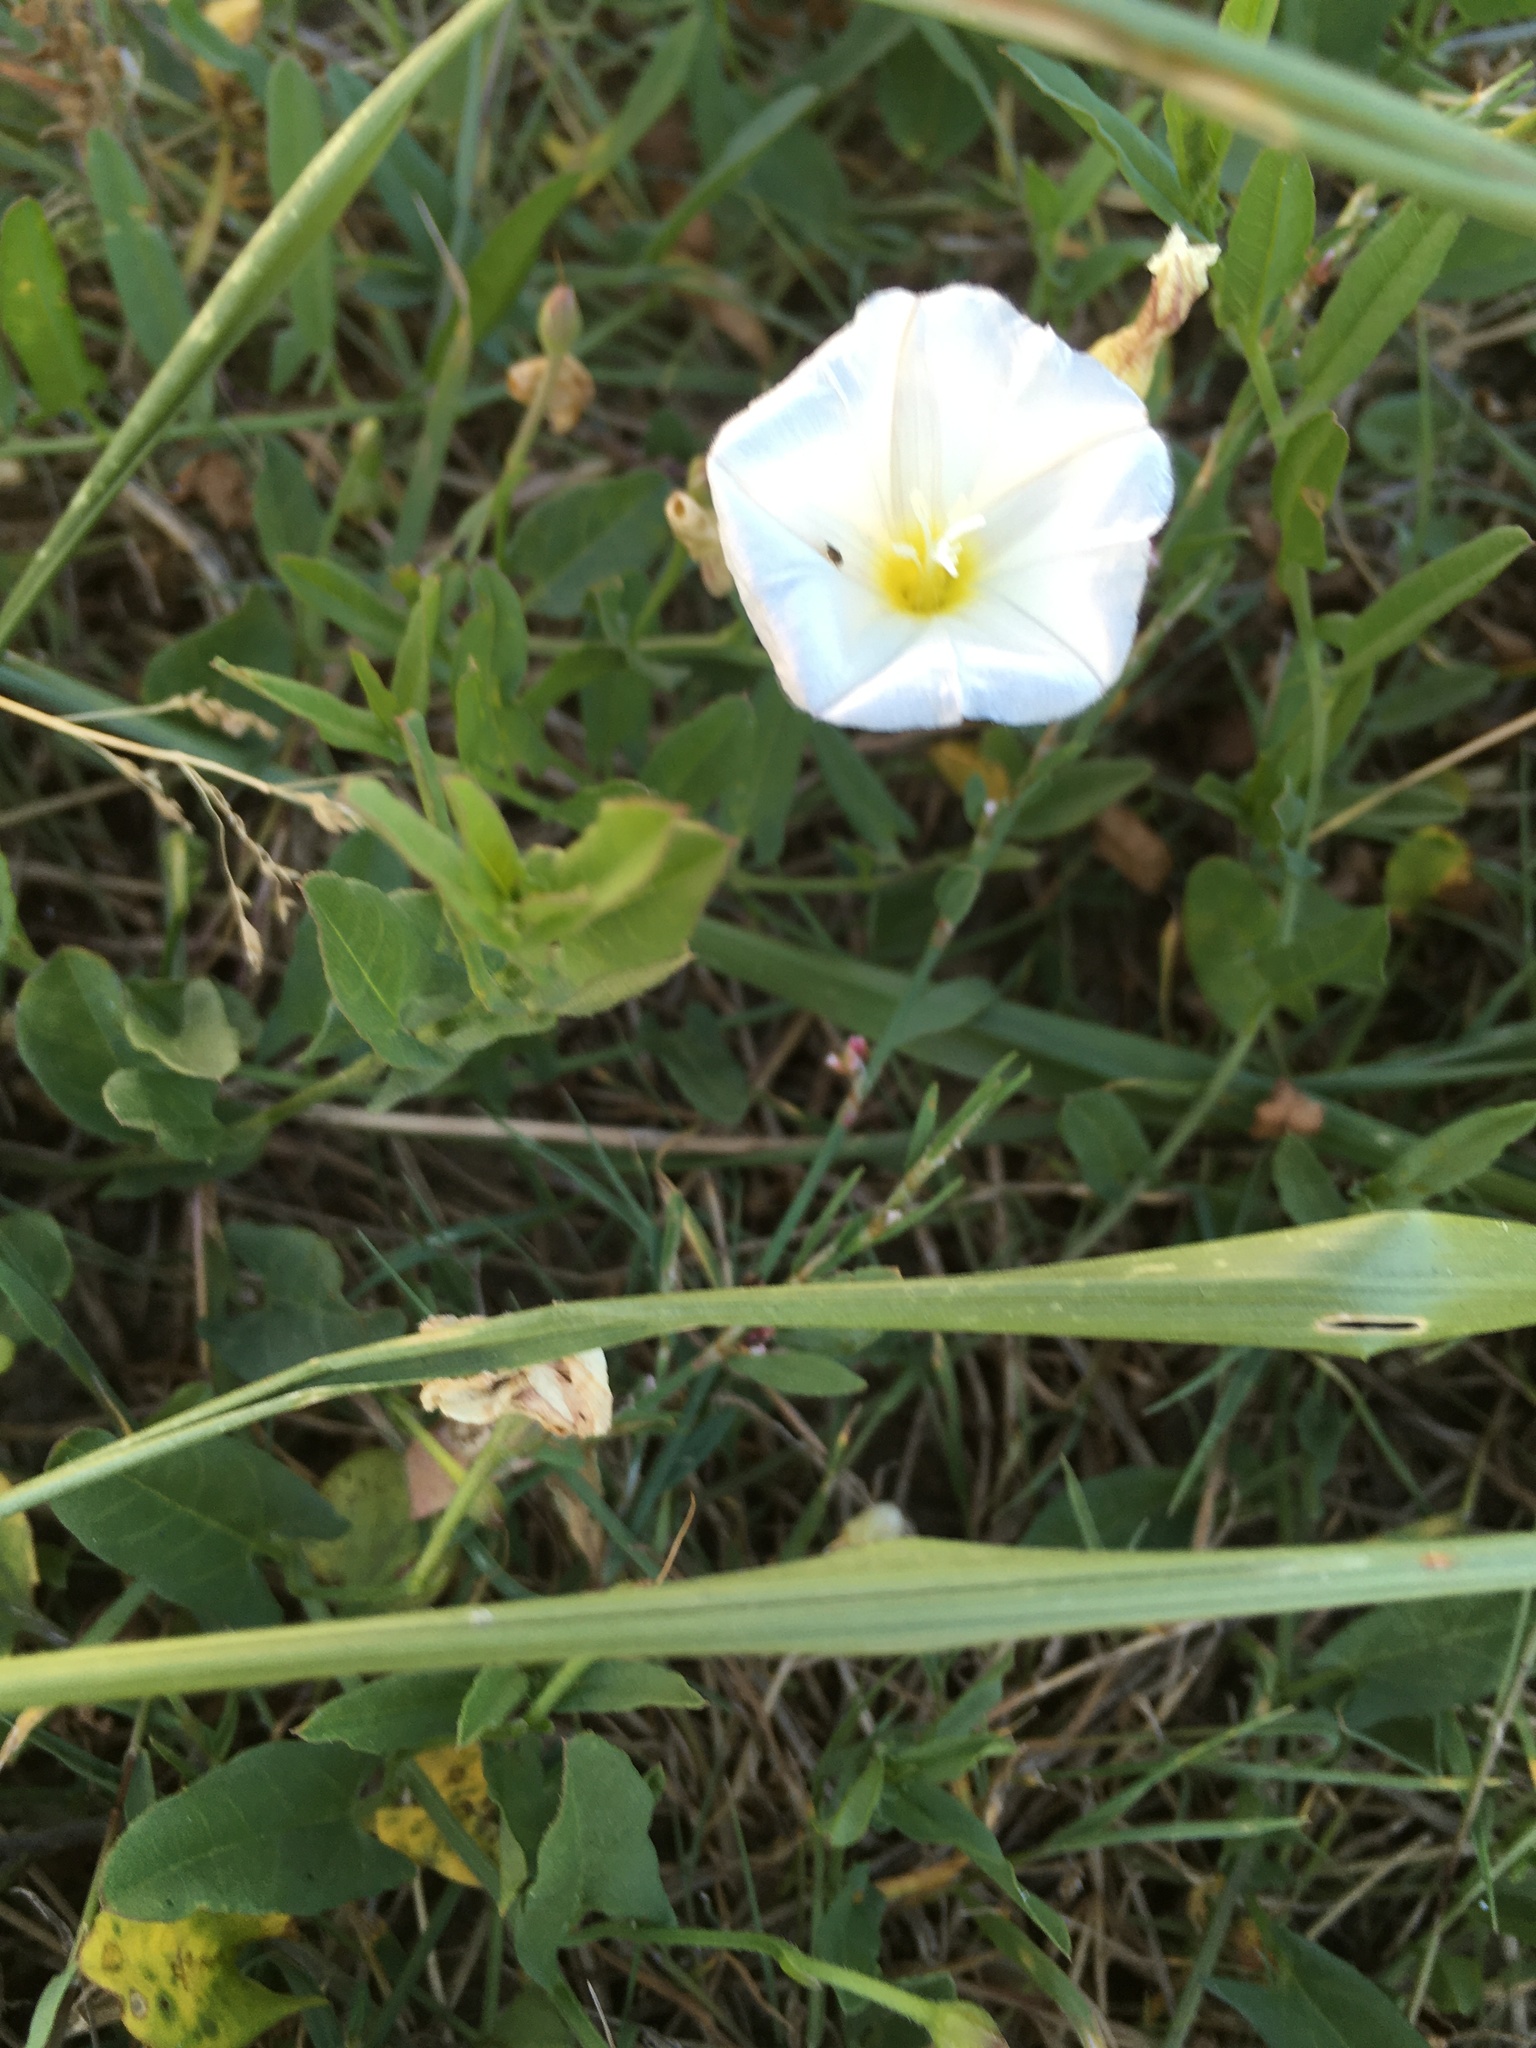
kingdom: Plantae
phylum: Tracheophyta
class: Magnoliopsida
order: Solanales
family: Convolvulaceae
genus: Convolvulus
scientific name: Convolvulus arvensis
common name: Field bindweed
